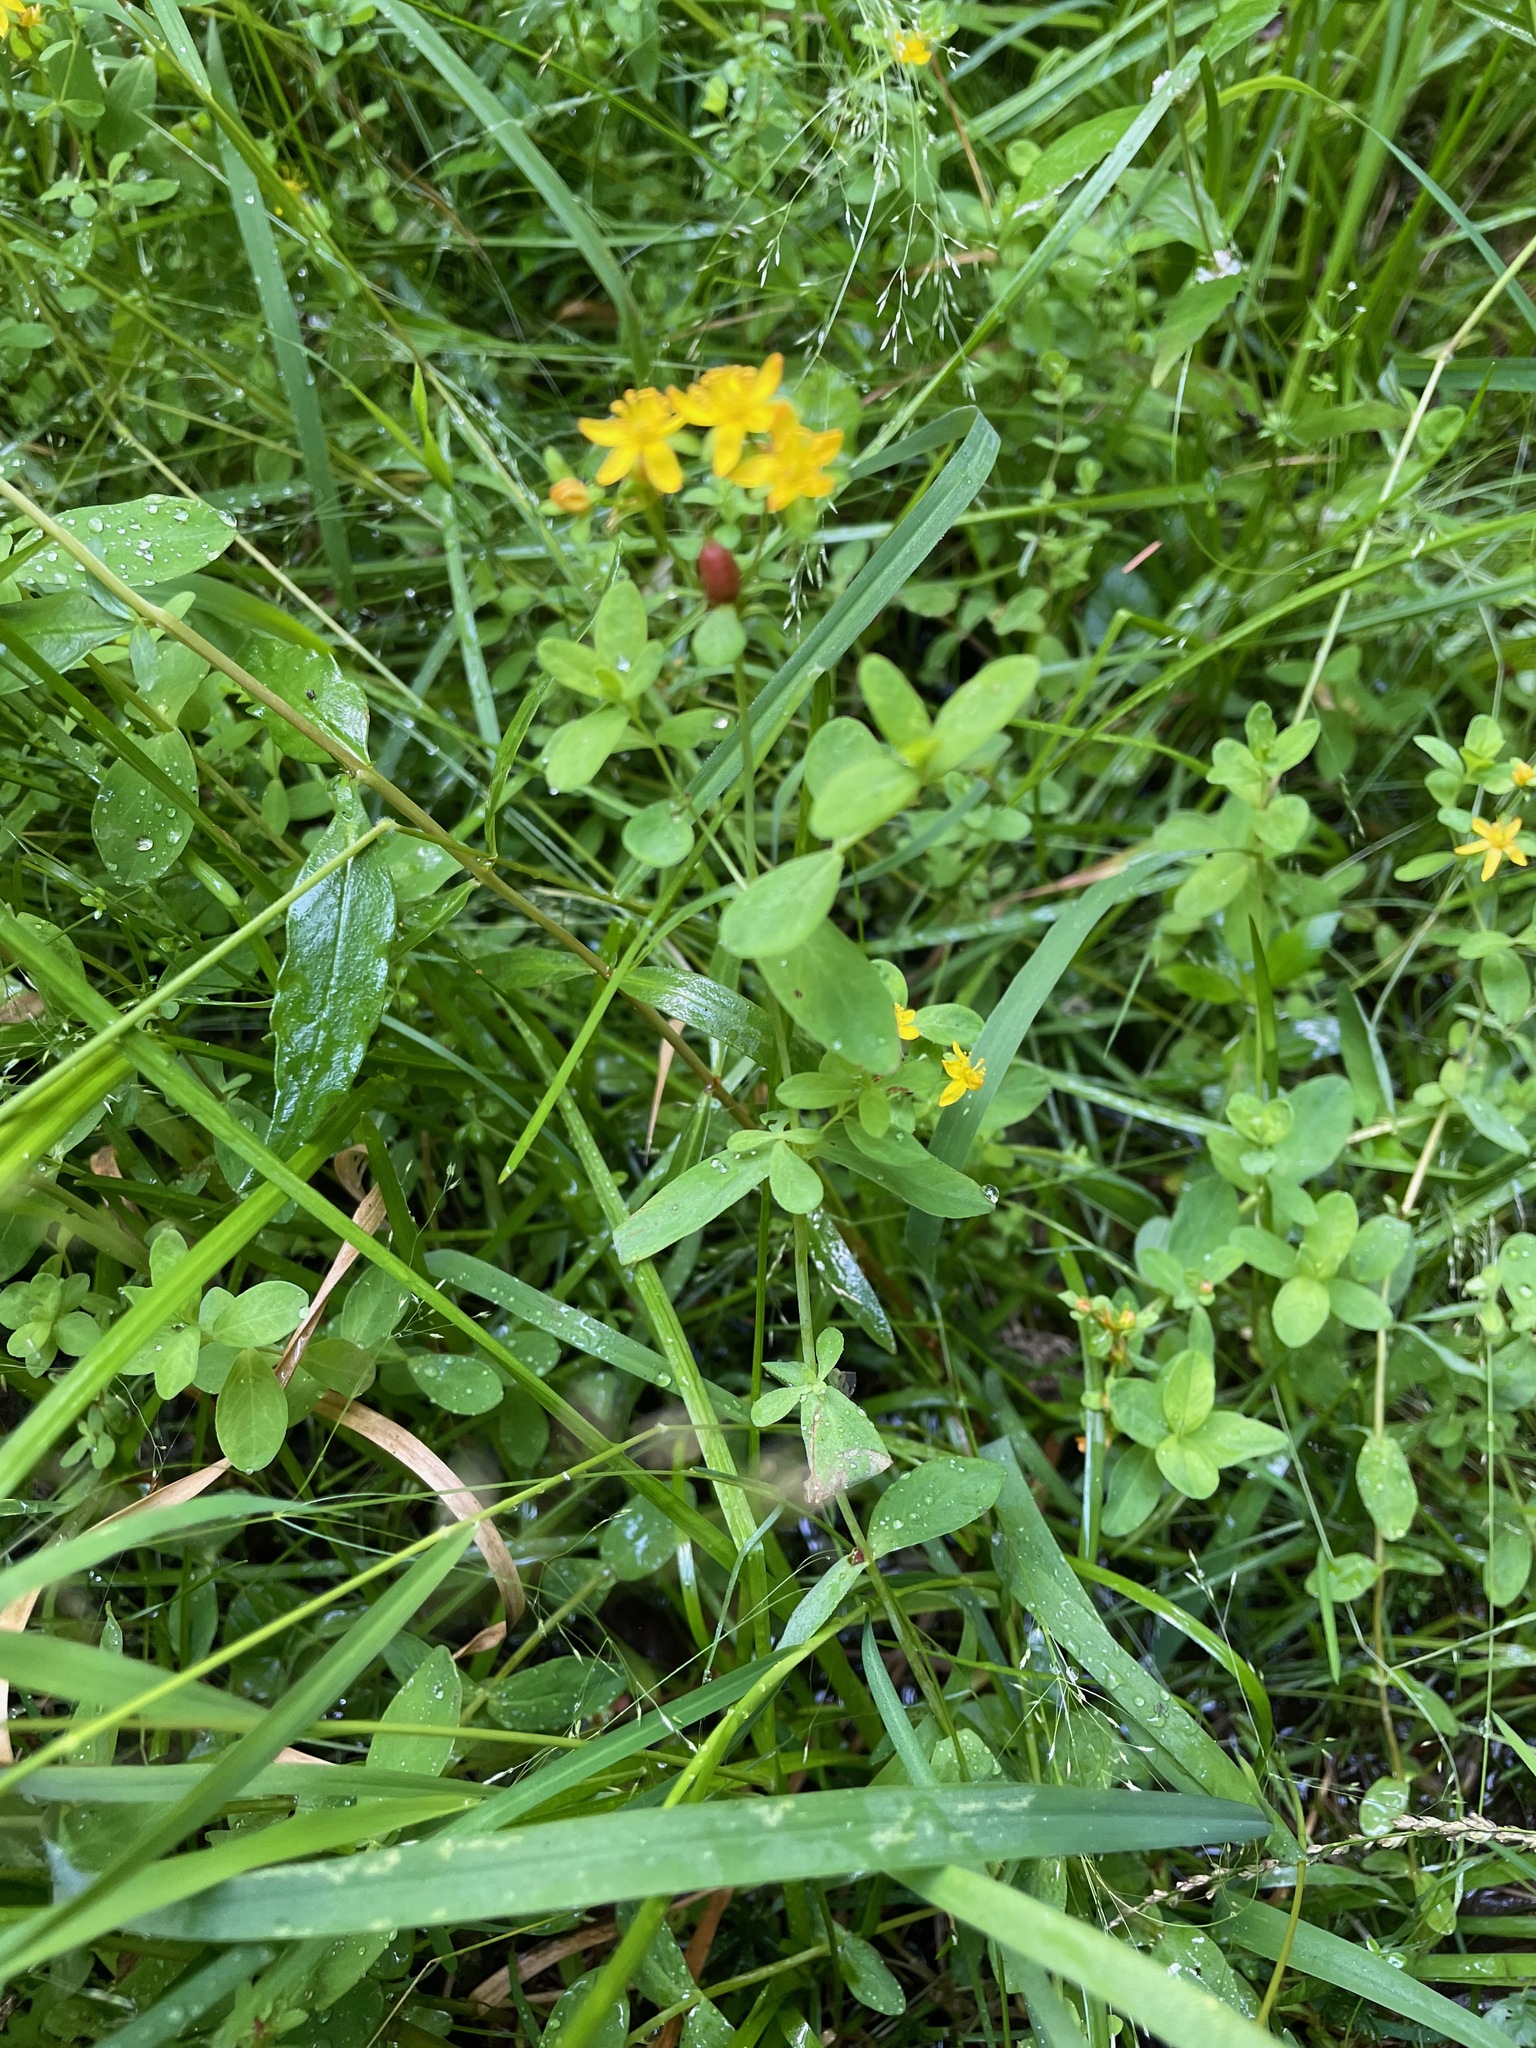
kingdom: Plantae
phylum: Tracheophyta
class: Magnoliopsida
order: Malpighiales
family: Hypericaceae
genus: Hypericum
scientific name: Hypericum ellipticum
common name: Elliptic st. john's-wort
